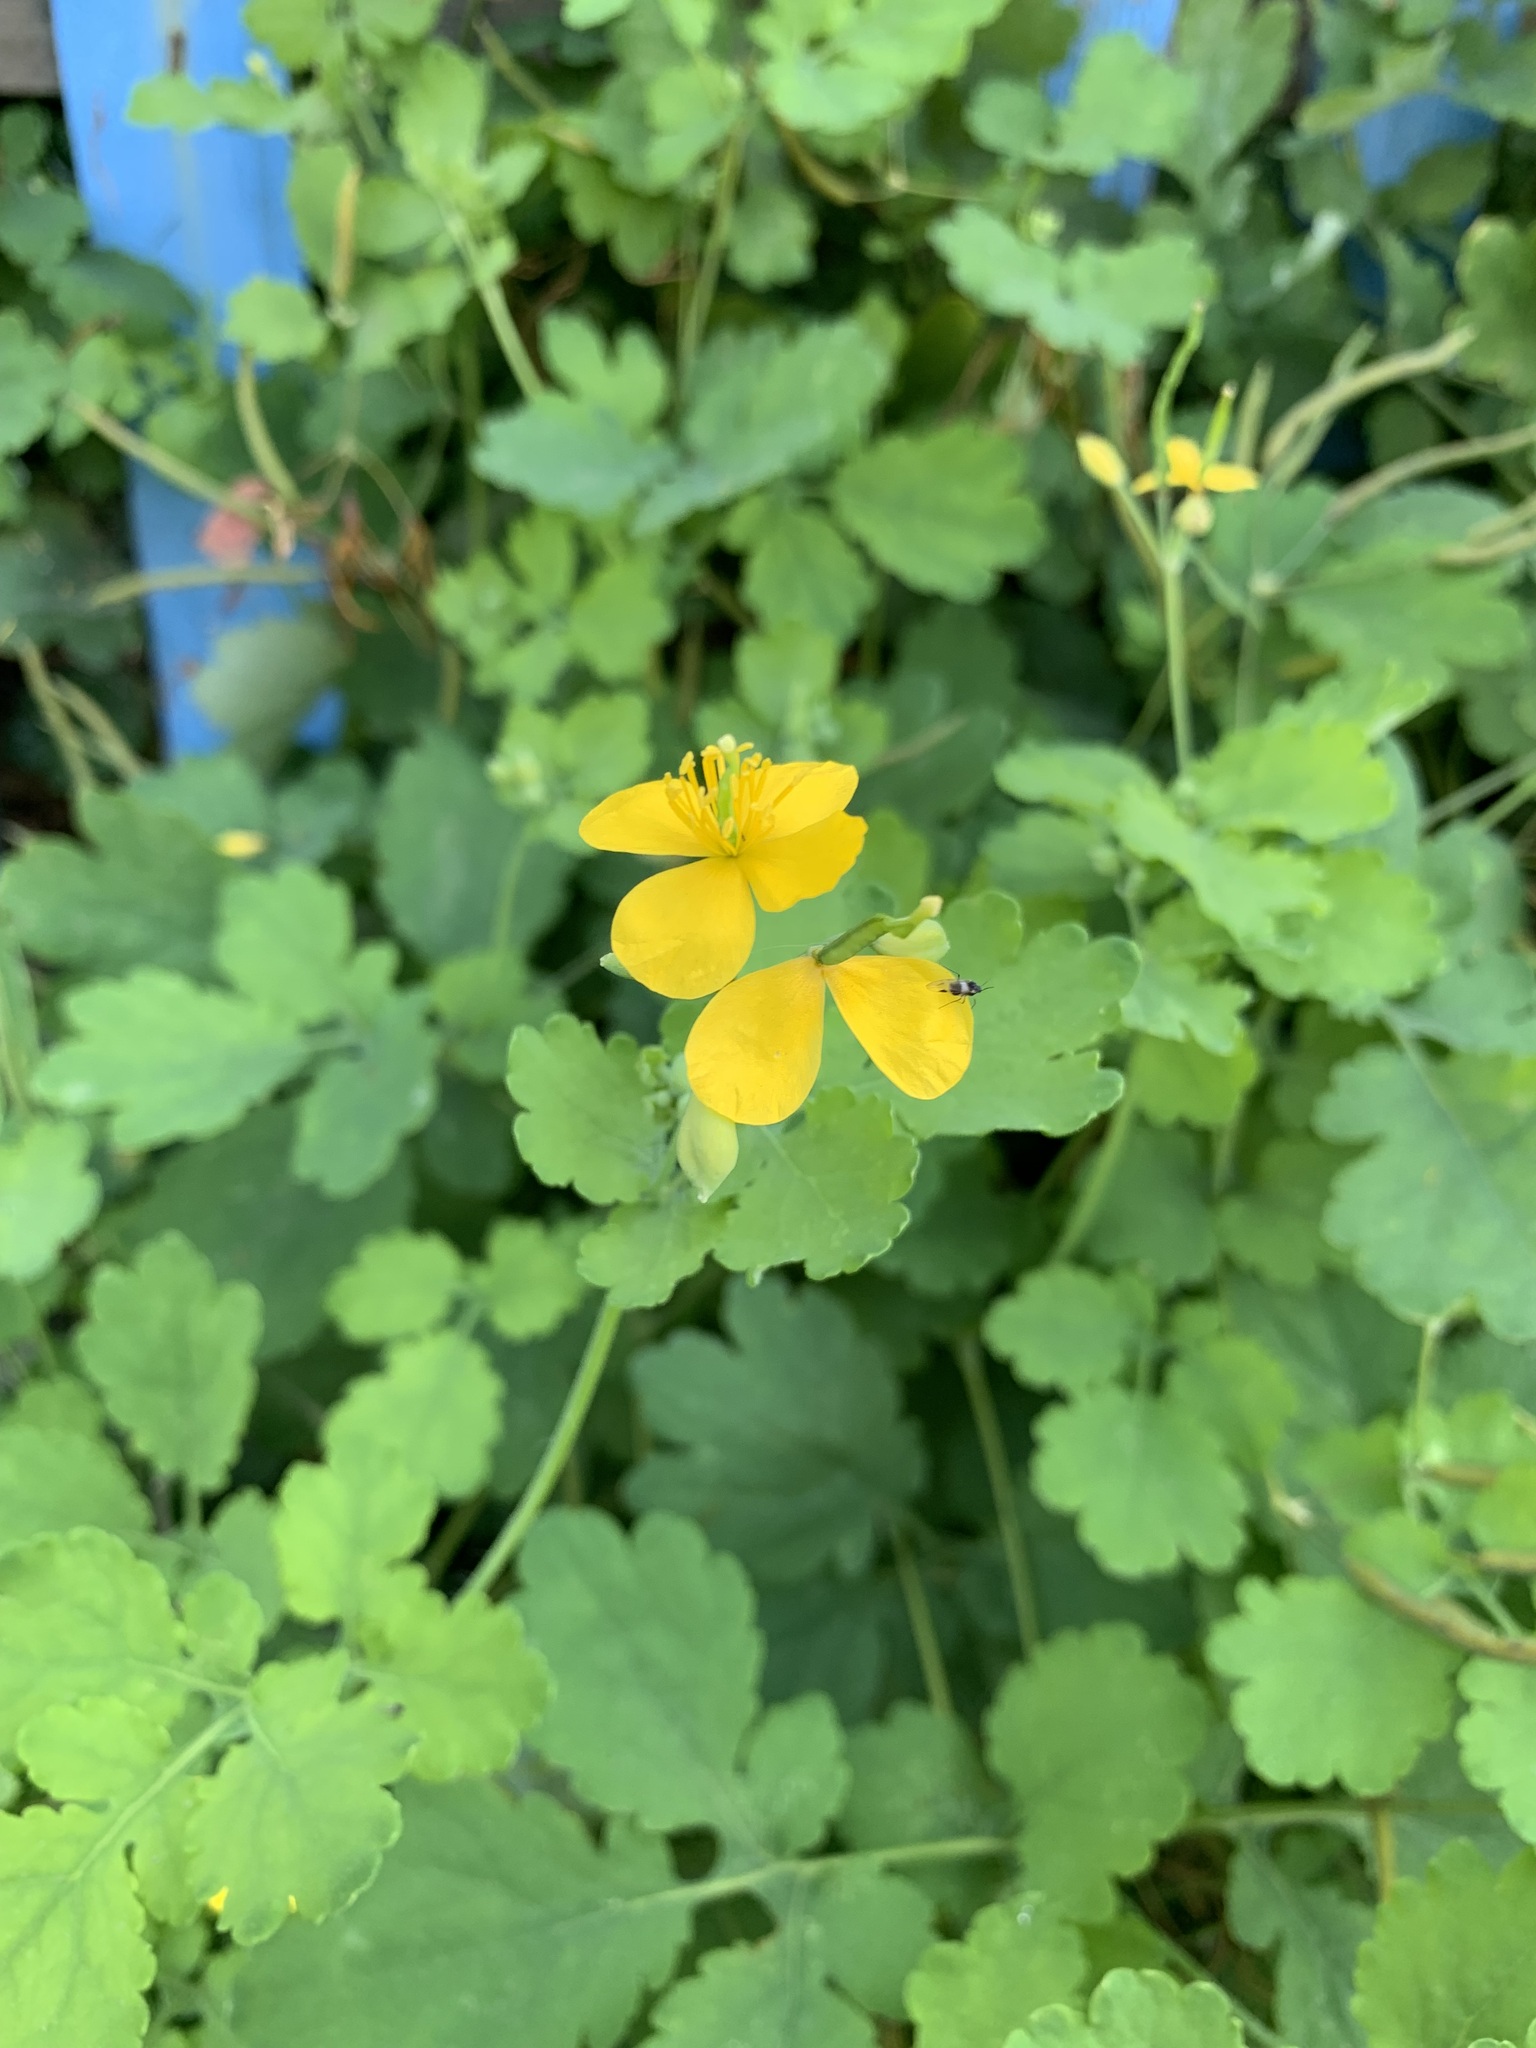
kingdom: Plantae
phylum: Tracheophyta
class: Magnoliopsida
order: Ranunculales
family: Papaveraceae
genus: Chelidonium
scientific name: Chelidonium majus
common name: Greater celandine
